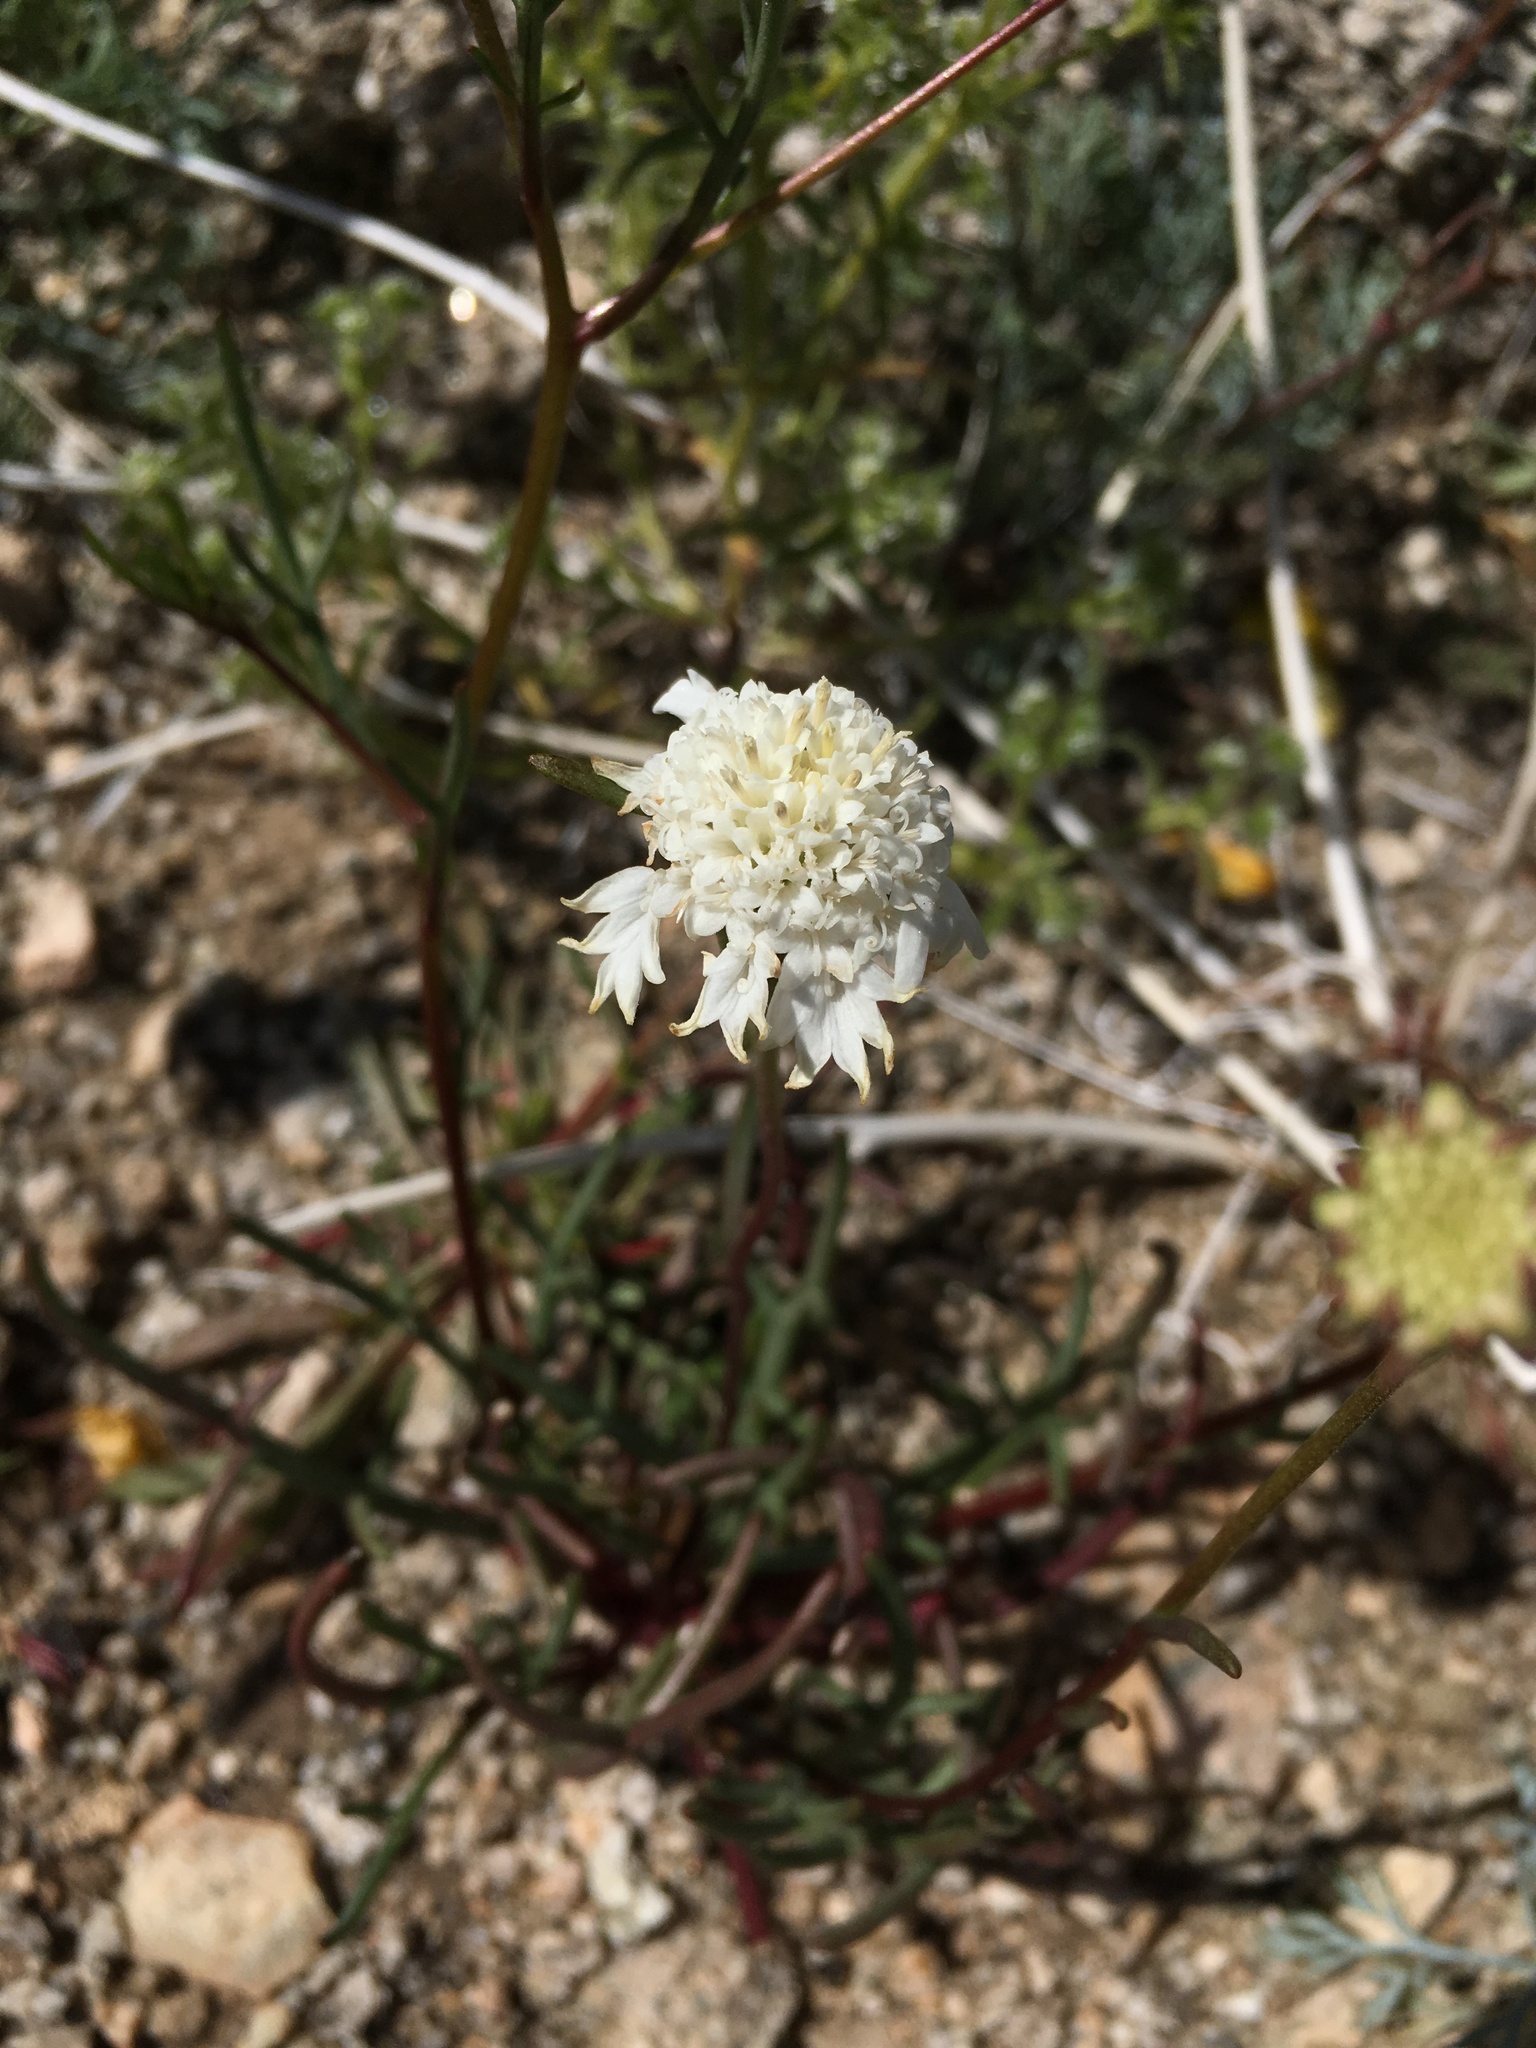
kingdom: Plantae
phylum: Tracheophyta
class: Magnoliopsida
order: Asterales
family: Asteraceae
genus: Chaenactis
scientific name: Chaenactis fremontii
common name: Fremont pincushion
